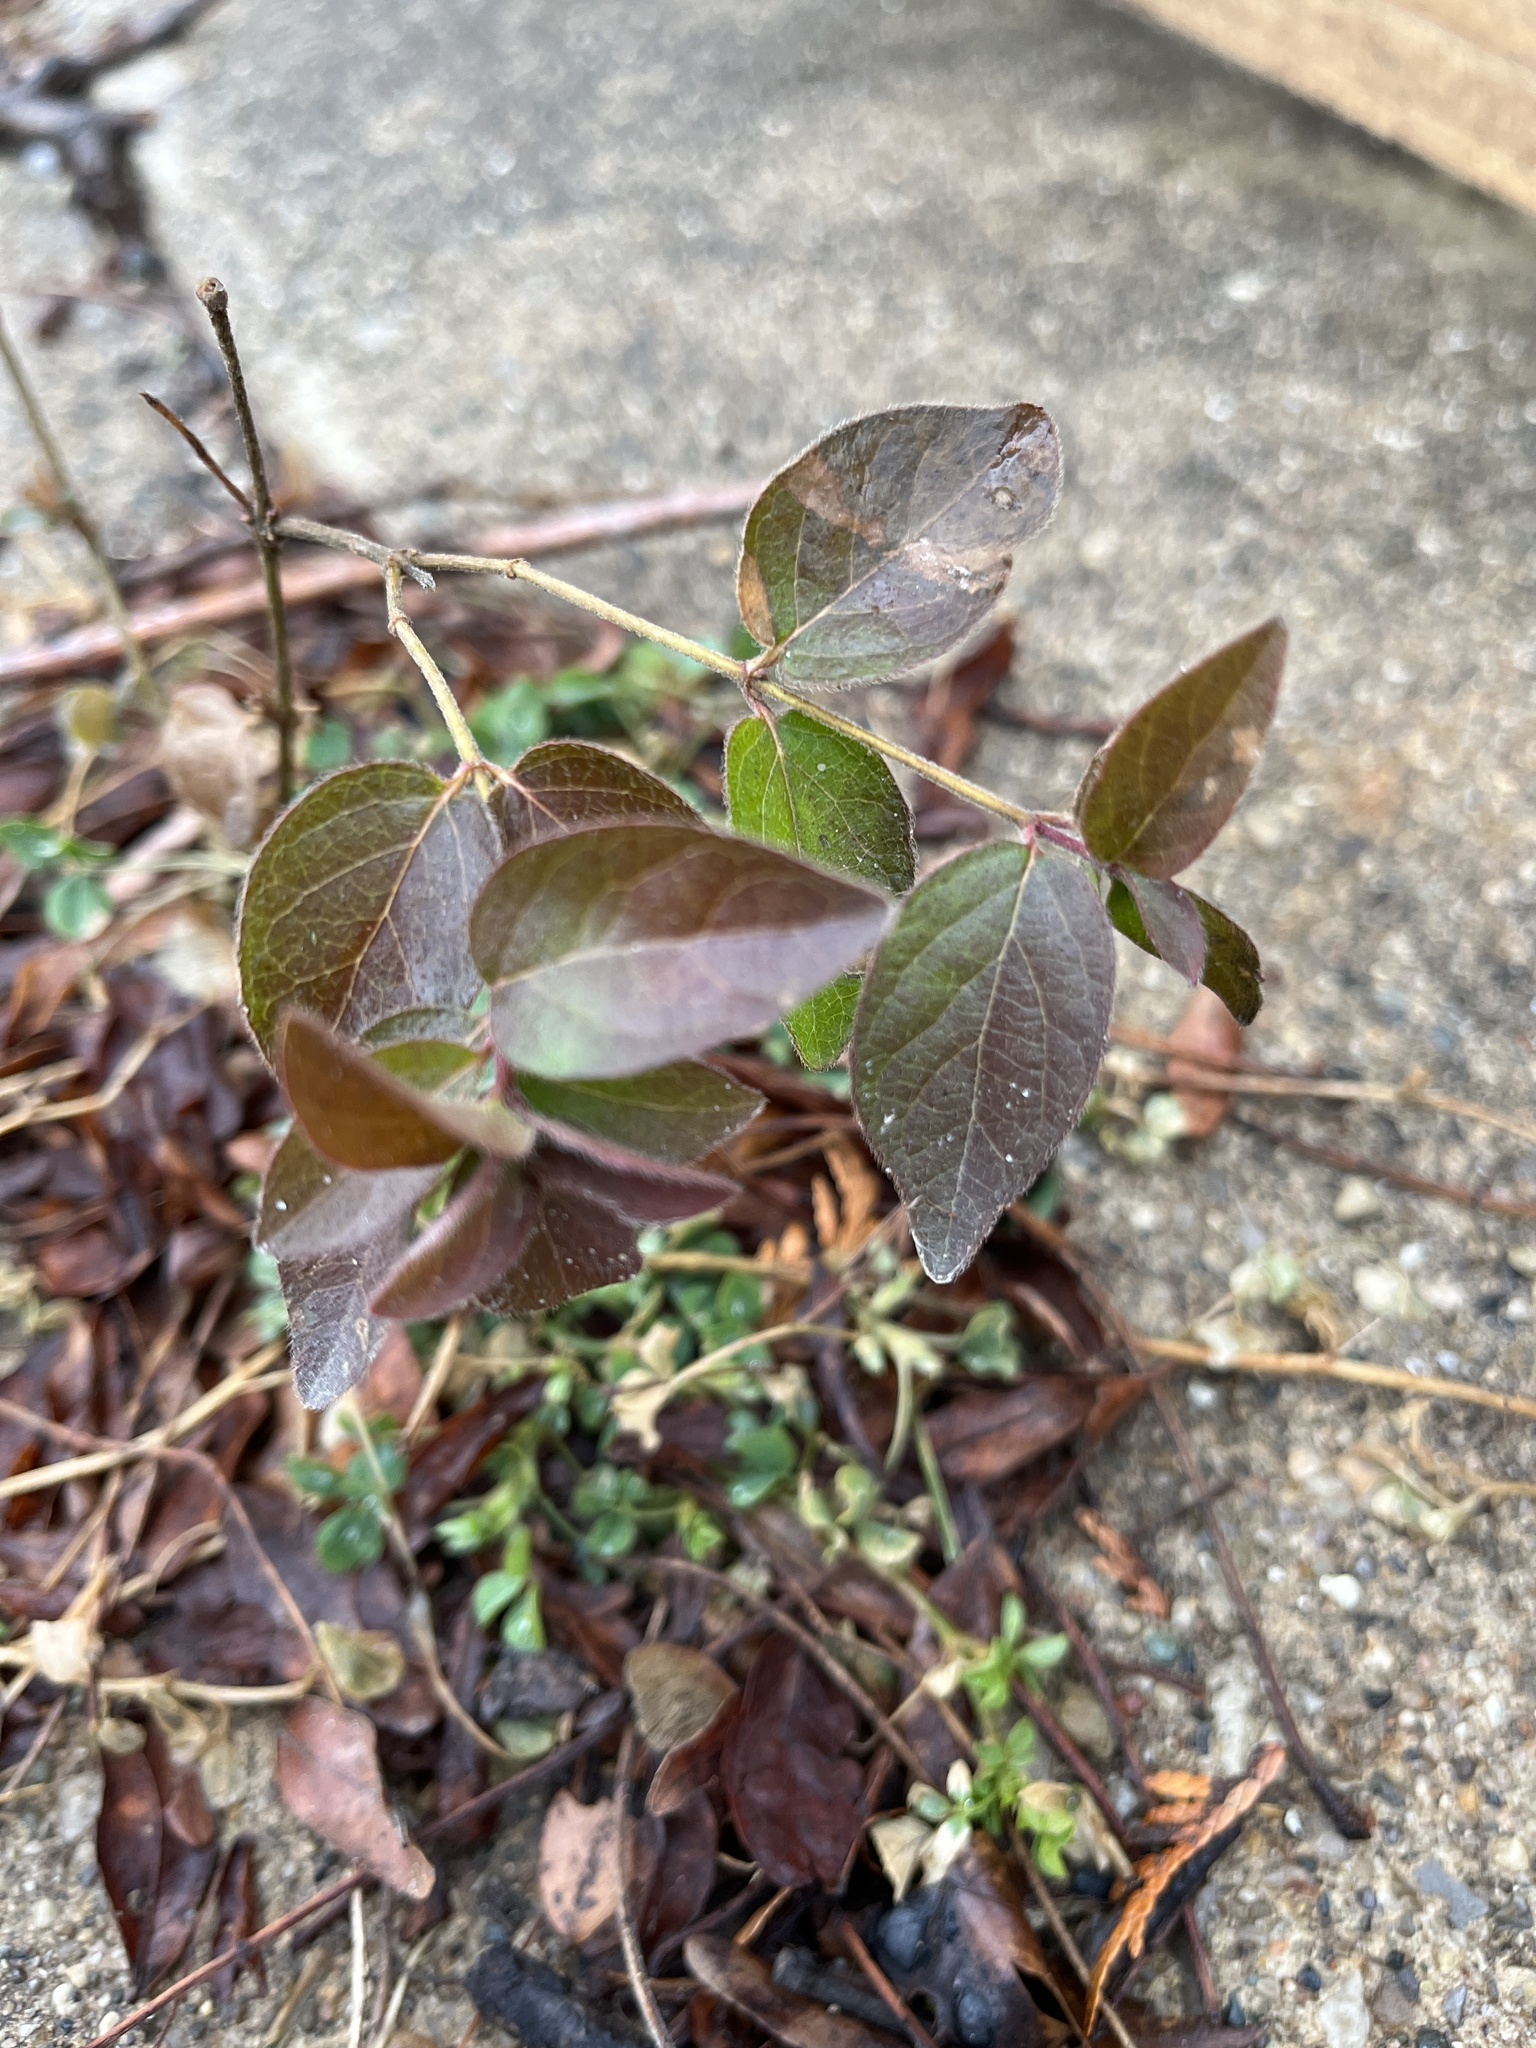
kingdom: Plantae
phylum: Tracheophyta
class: Magnoliopsida
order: Dipsacales
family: Caprifoliaceae
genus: Lonicera
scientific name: Lonicera maackii
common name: Amur honeysuckle
